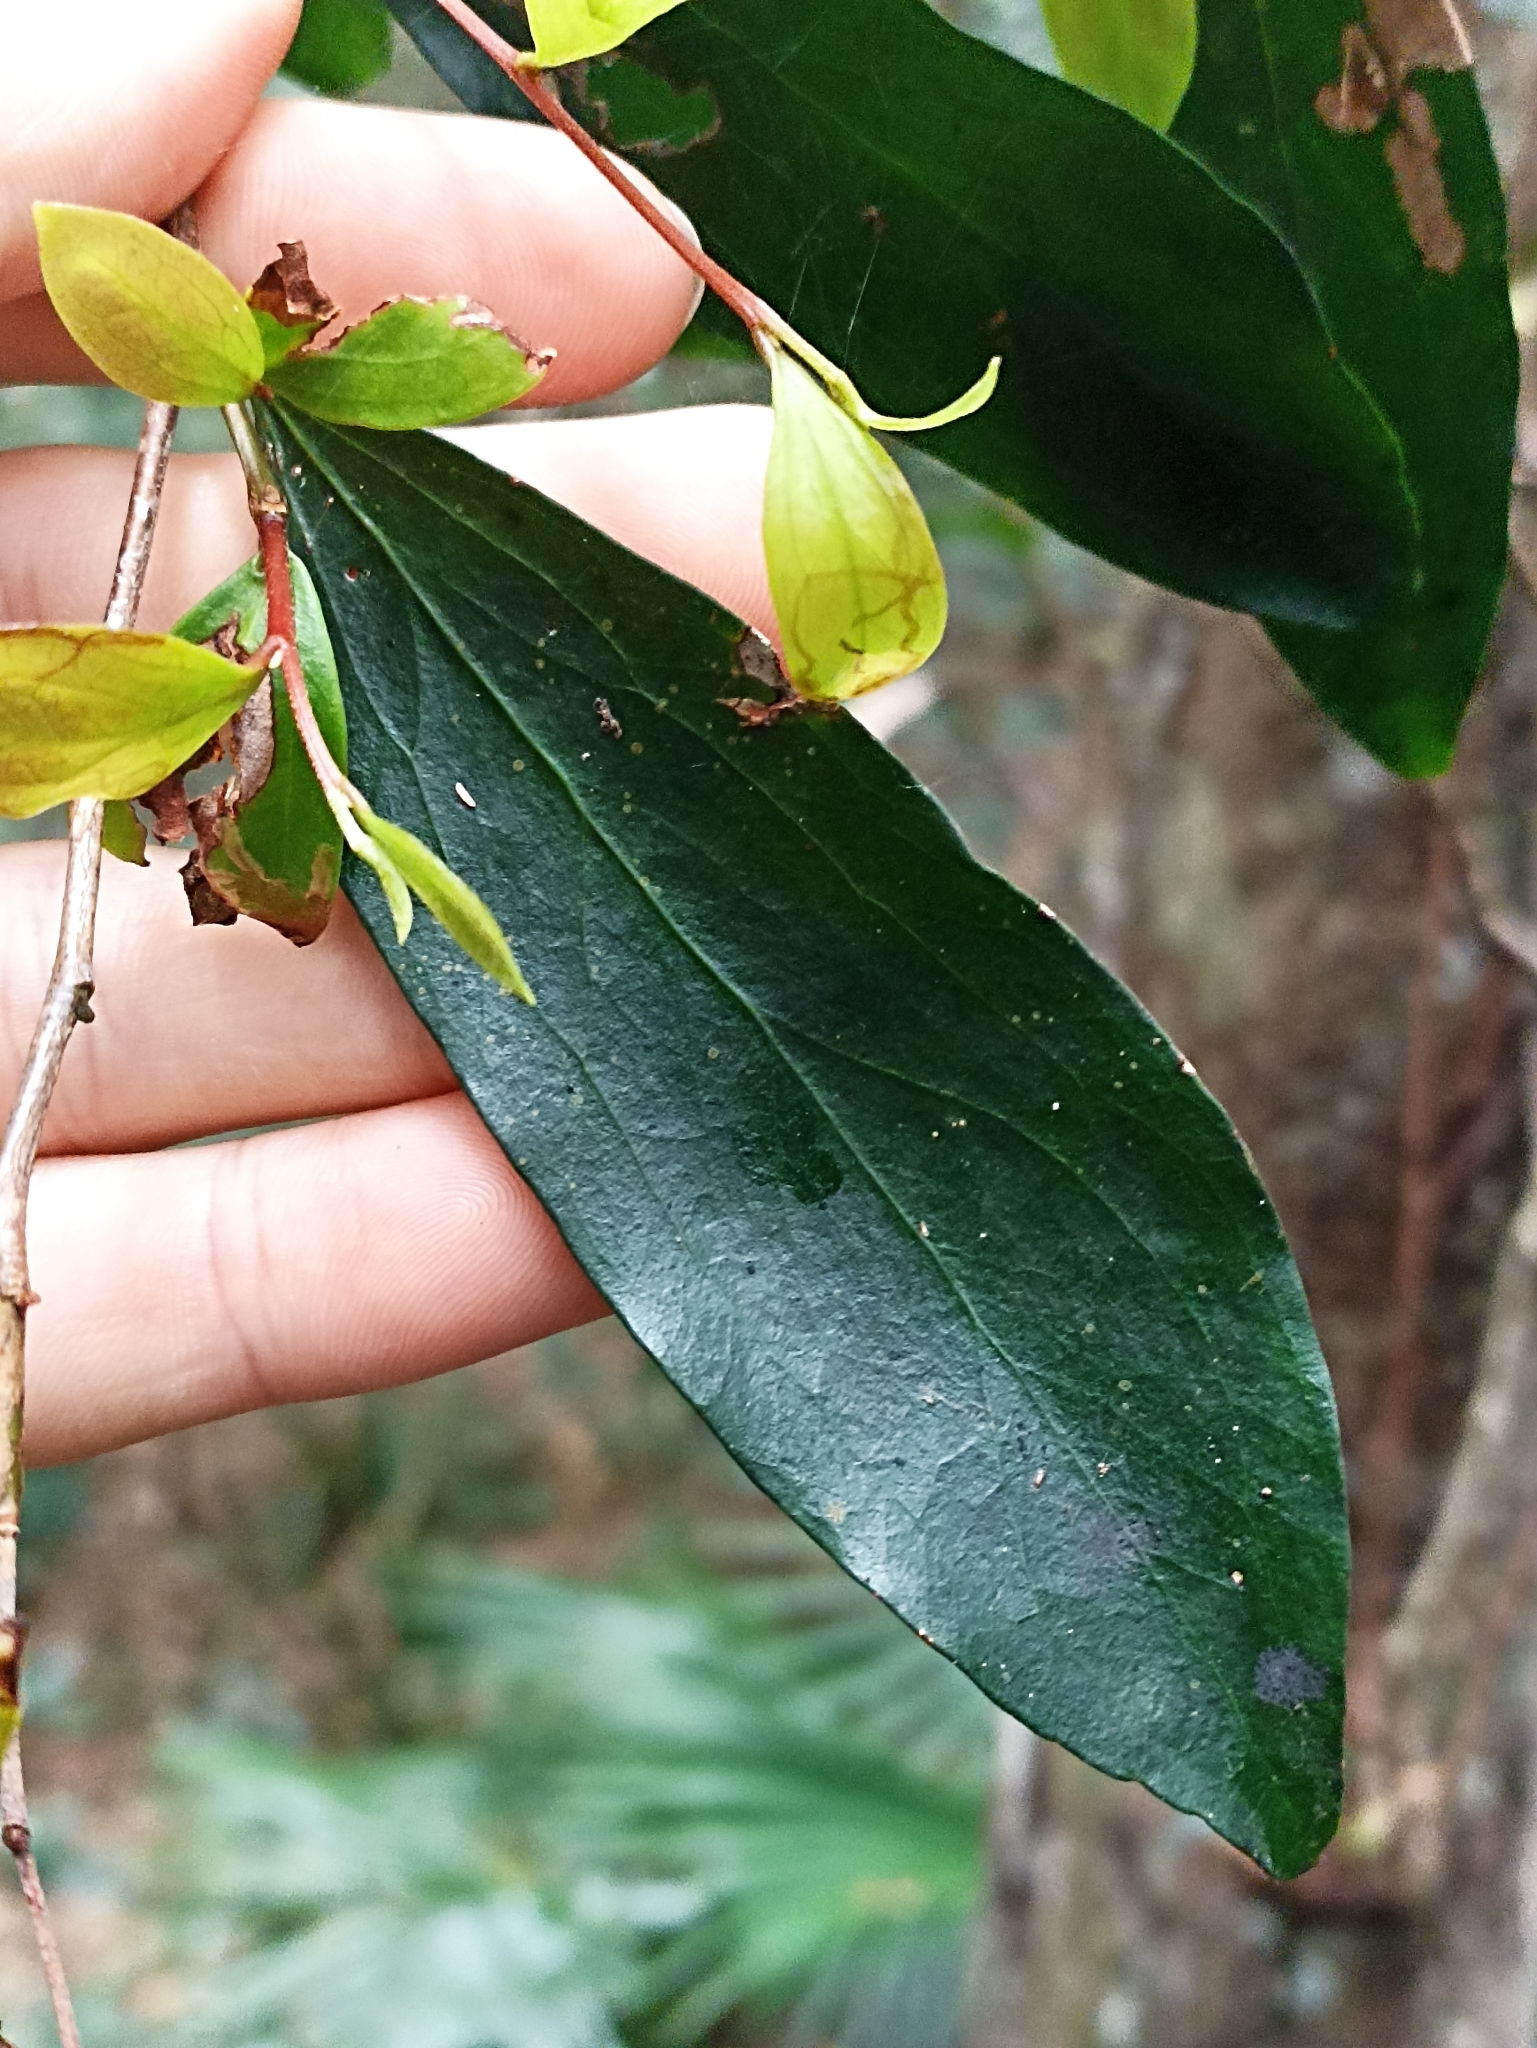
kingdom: Plantae
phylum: Tracheophyta
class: Magnoliopsida
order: Proteales
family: Proteaceae
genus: Stenocarpus
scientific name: Stenocarpus salignus
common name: Red silky-oak
